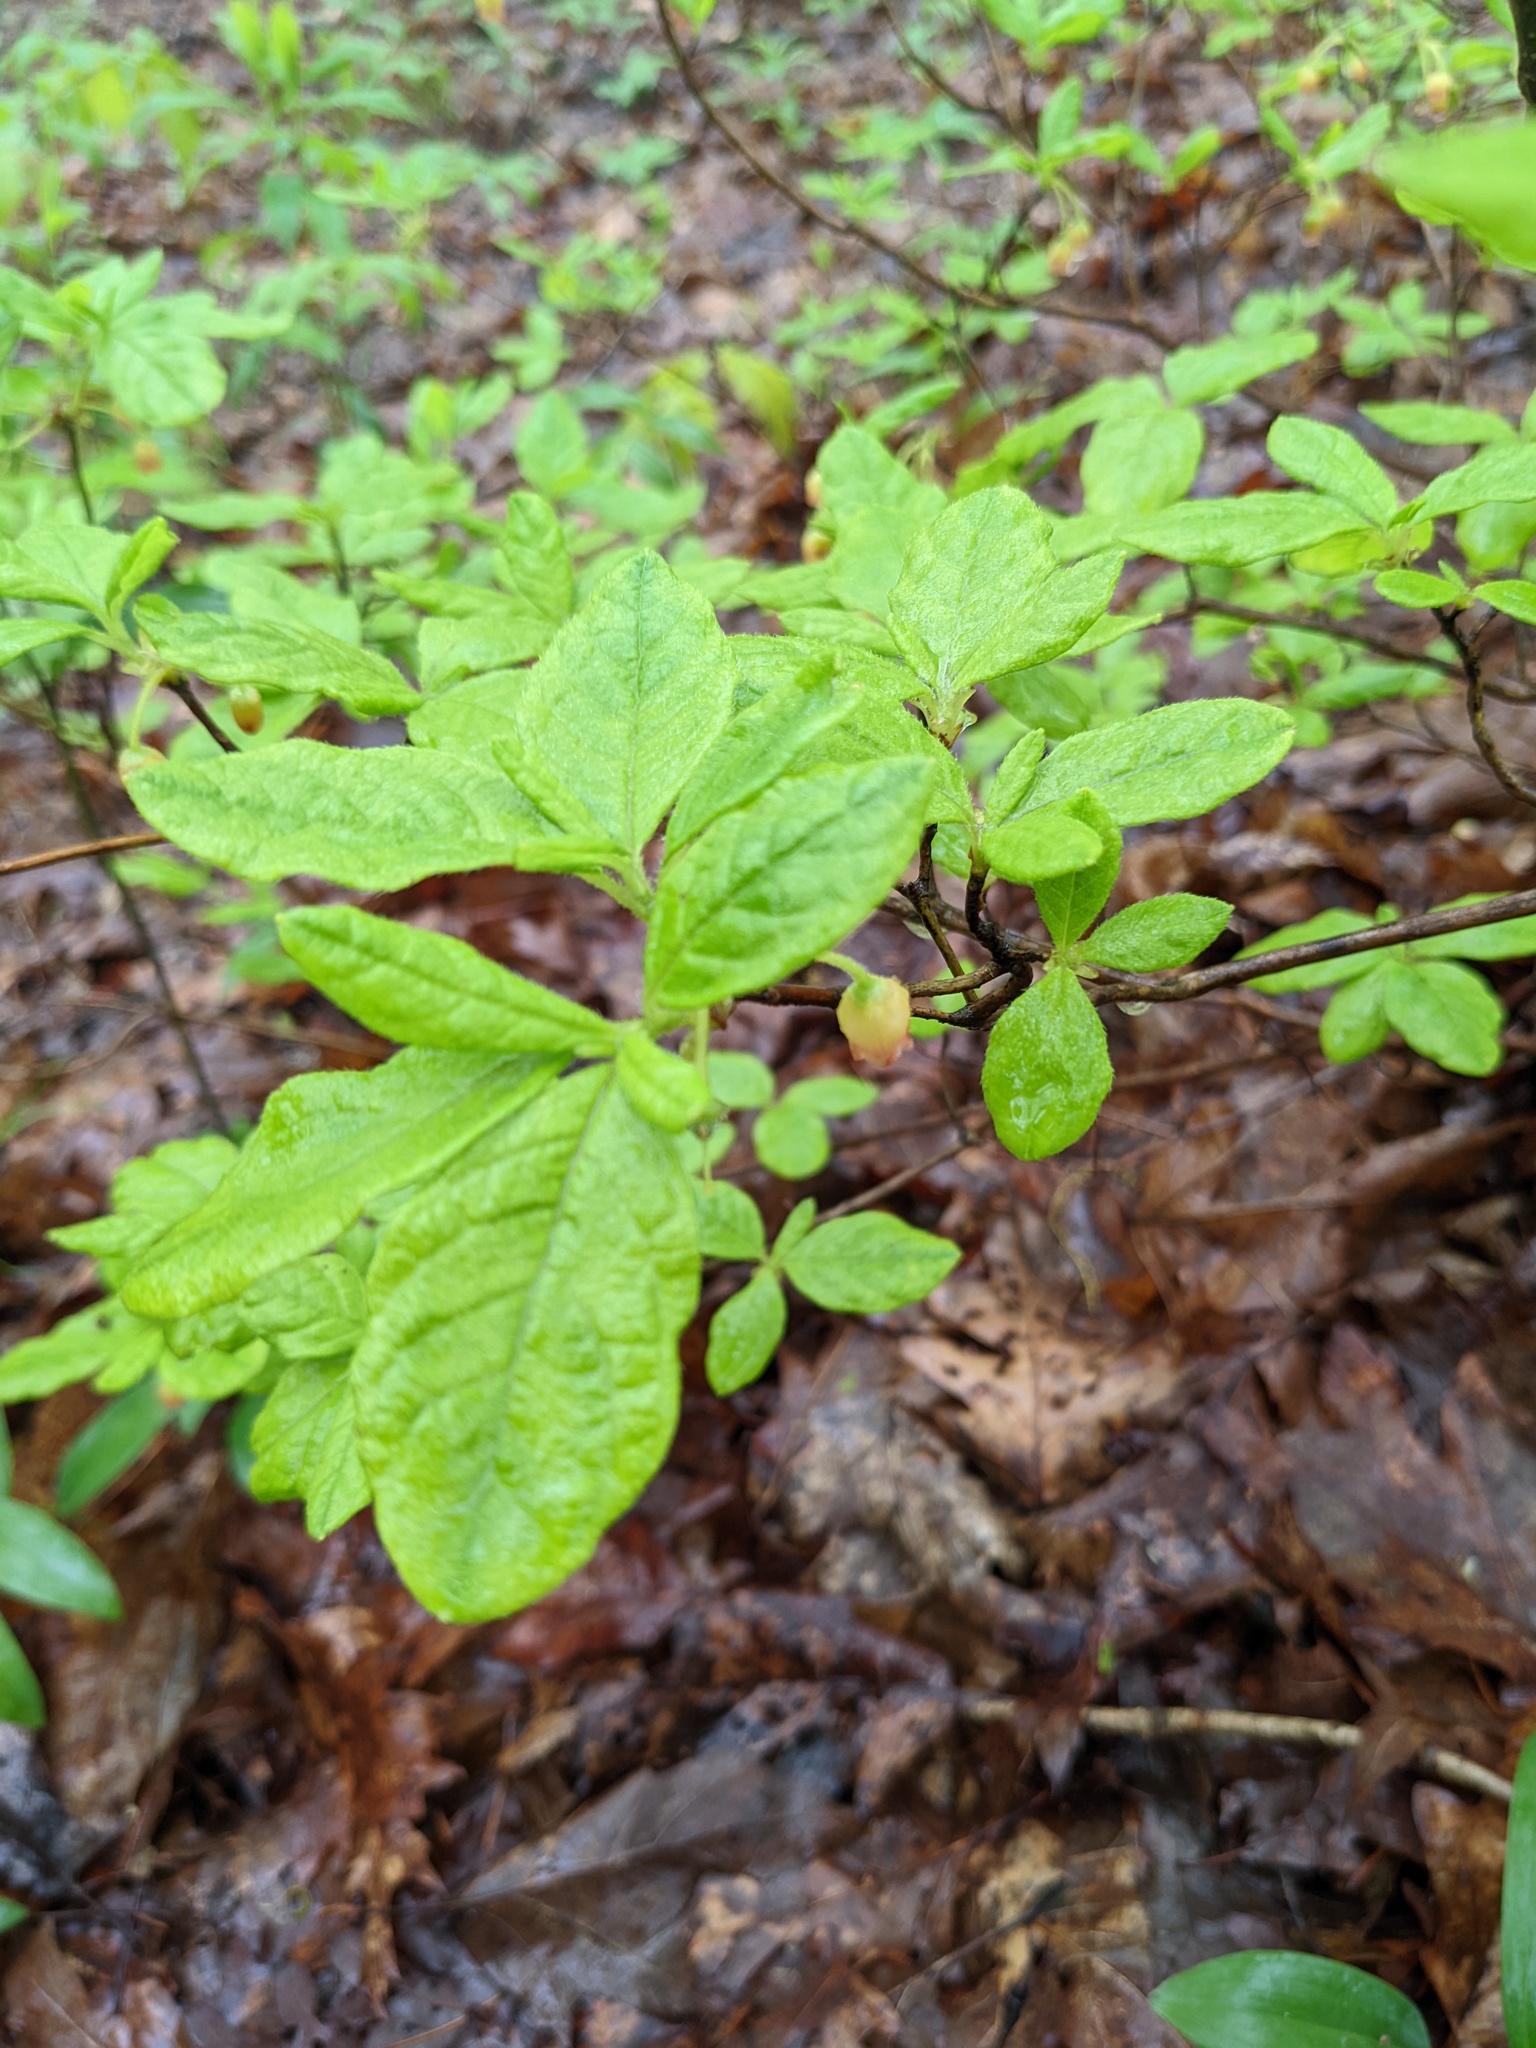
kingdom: Plantae
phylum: Tracheophyta
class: Magnoliopsida
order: Ericales
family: Ericaceae
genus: Rhododendron
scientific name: Rhododendron pilosum
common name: Hairy minniebush
